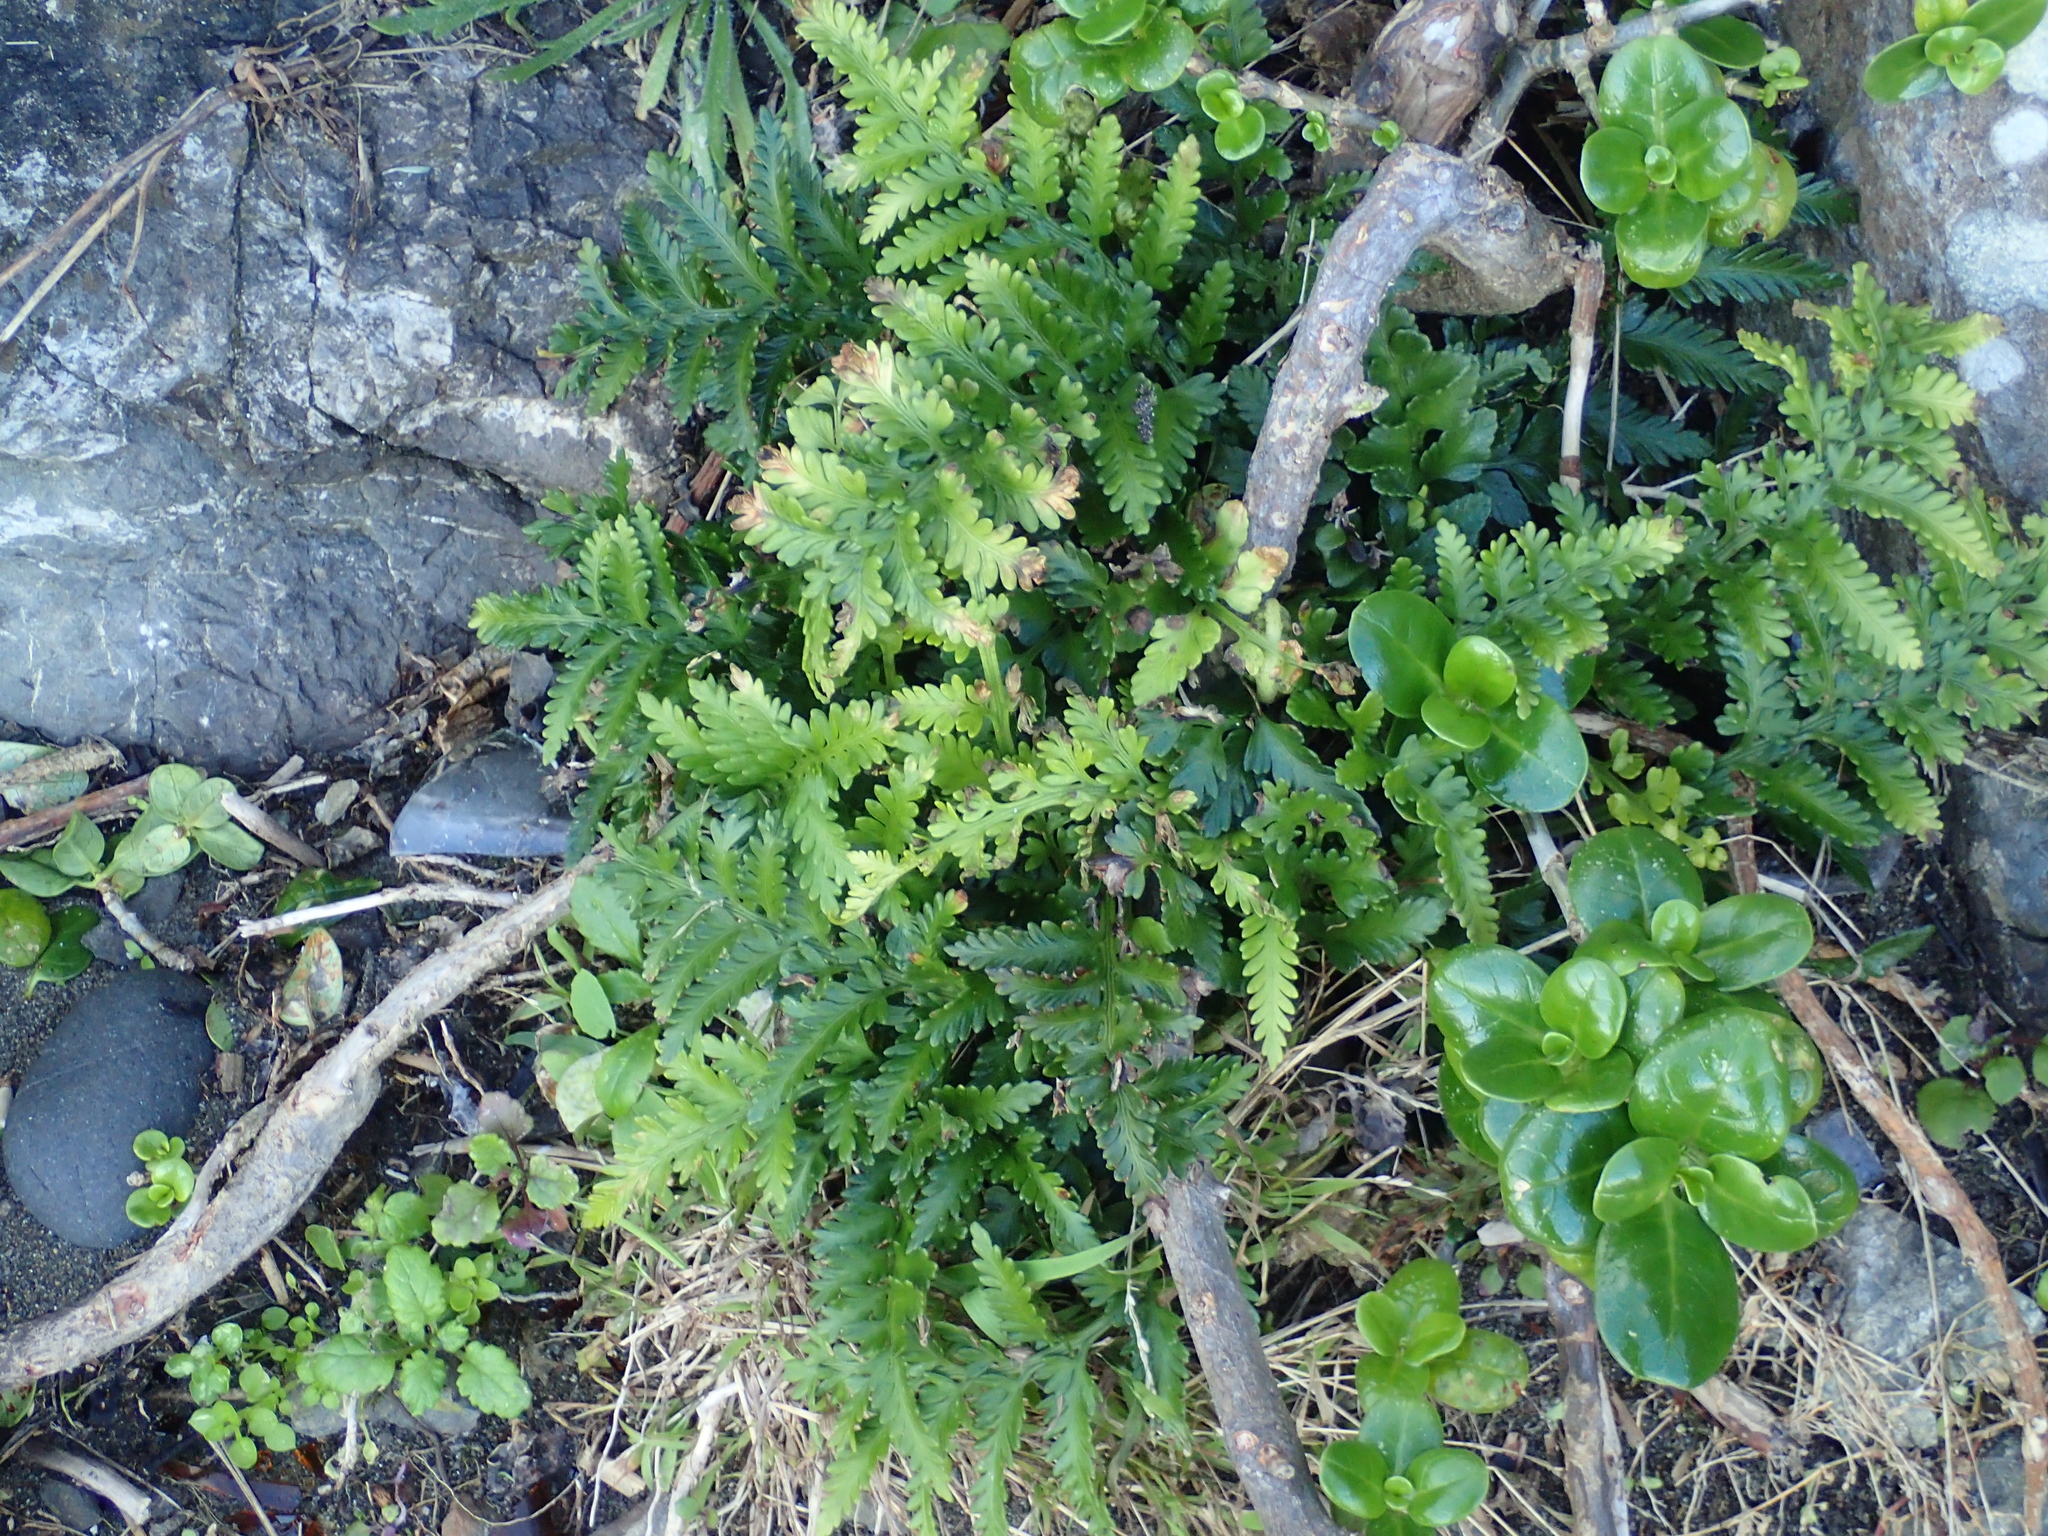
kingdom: Plantae
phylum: Tracheophyta
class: Polypodiopsida
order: Polypodiales
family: Aspleniaceae
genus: Asplenium
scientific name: Asplenium appendiculatum
